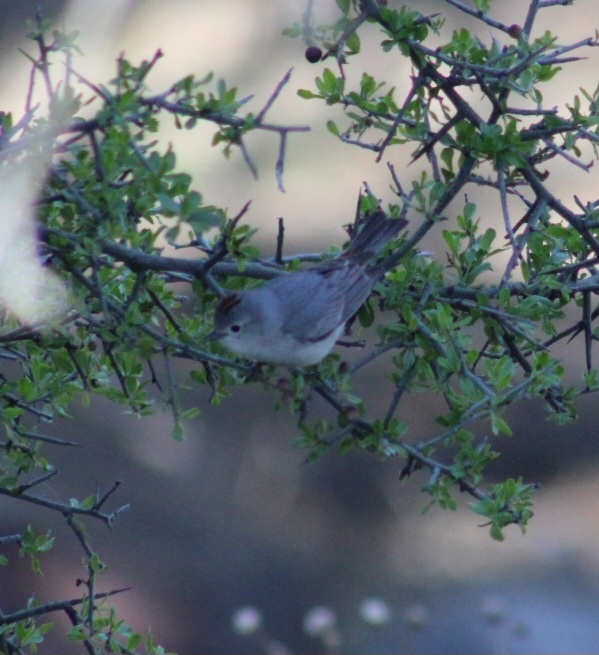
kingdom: Animalia
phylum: Chordata
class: Aves
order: Passeriformes
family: Parulidae
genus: Leiothlypis
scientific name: Leiothlypis luciae
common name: Lucy's warbler
